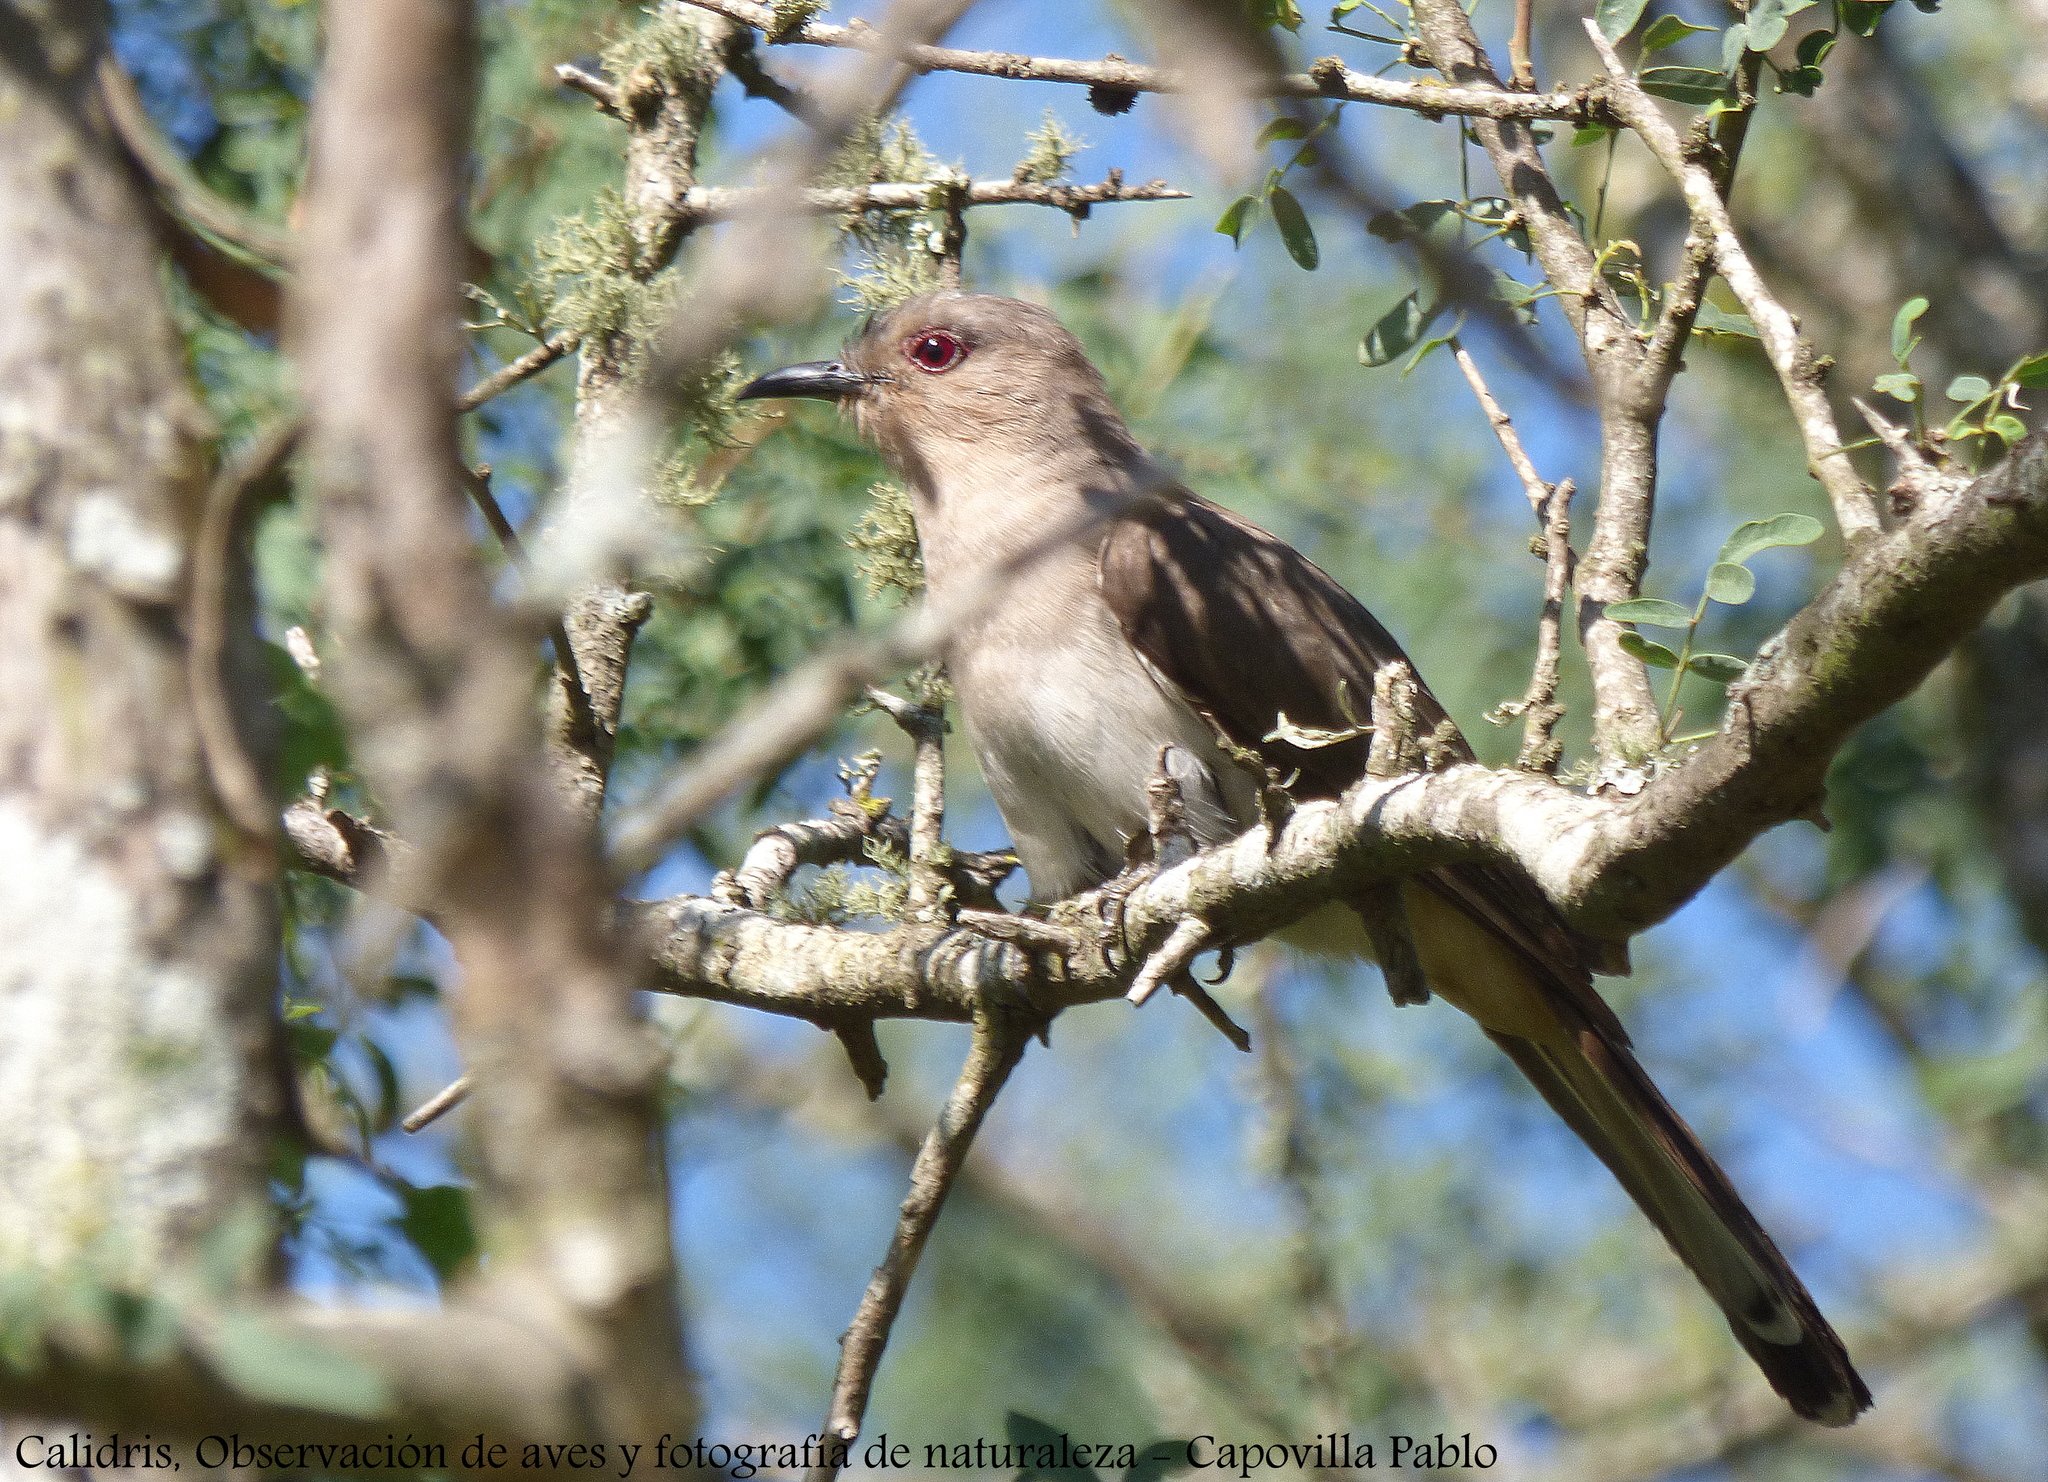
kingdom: Animalia
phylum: Chordata
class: Aves
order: Cuculiformes
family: Cuculidae
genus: Coccyzus
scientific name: Coccyzus cinereus
